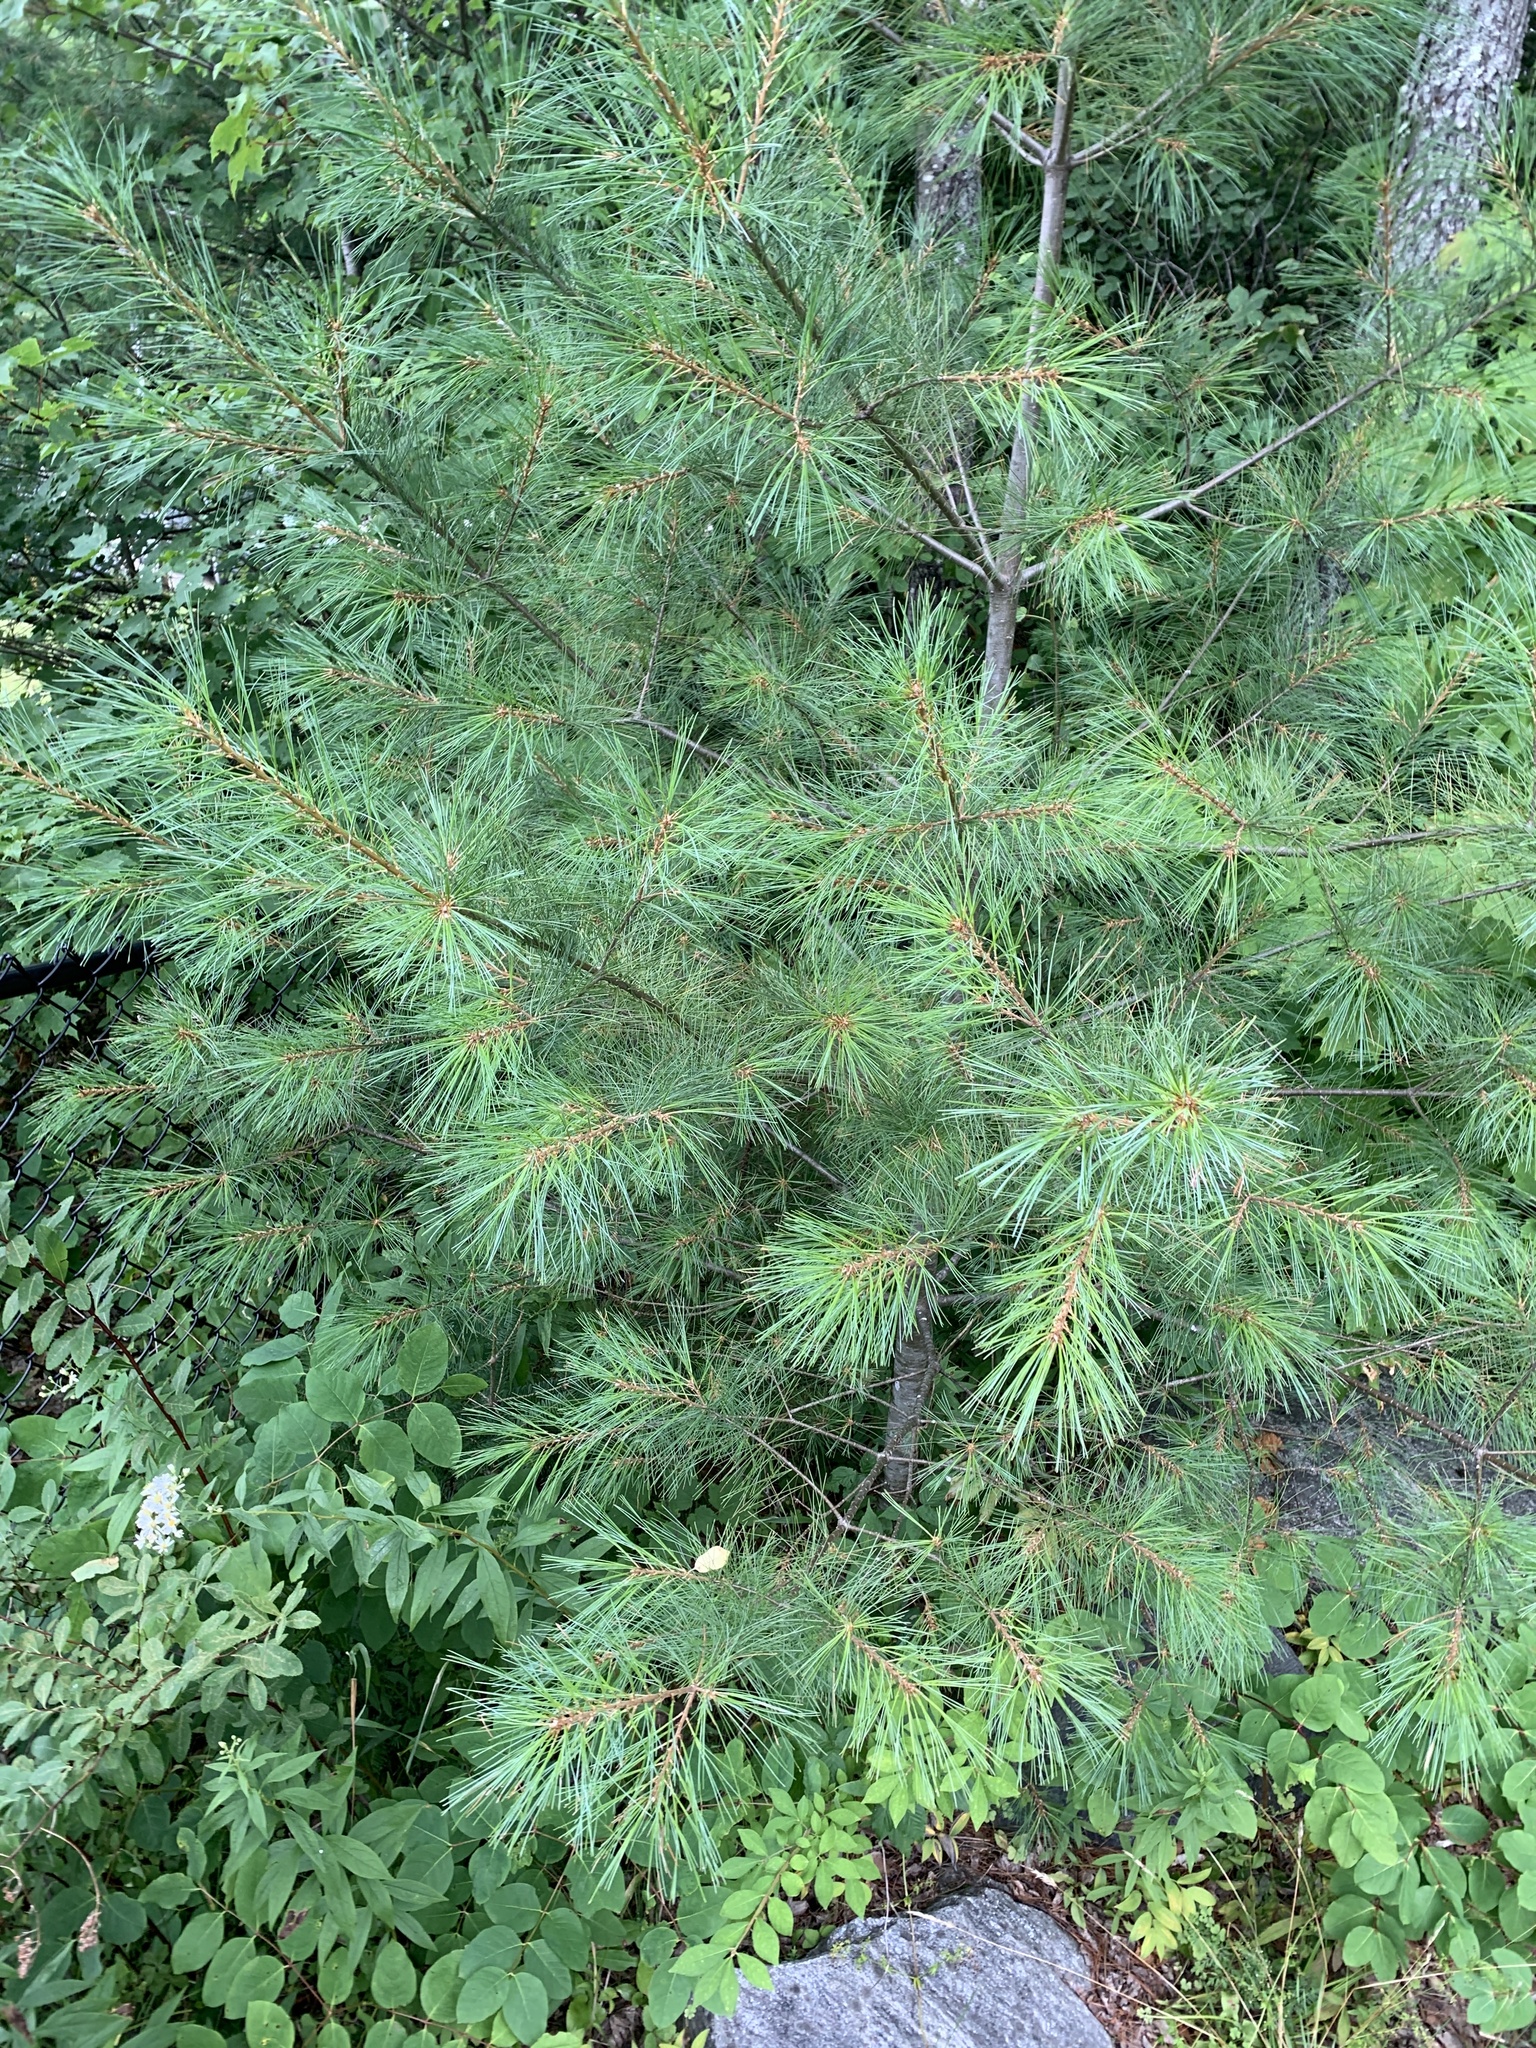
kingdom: Plantae
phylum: Tracheophyta
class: Pinopsida
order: Pinales
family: Pinaceae
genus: Pinus
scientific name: Pinus strobus
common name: Weymouth pine
